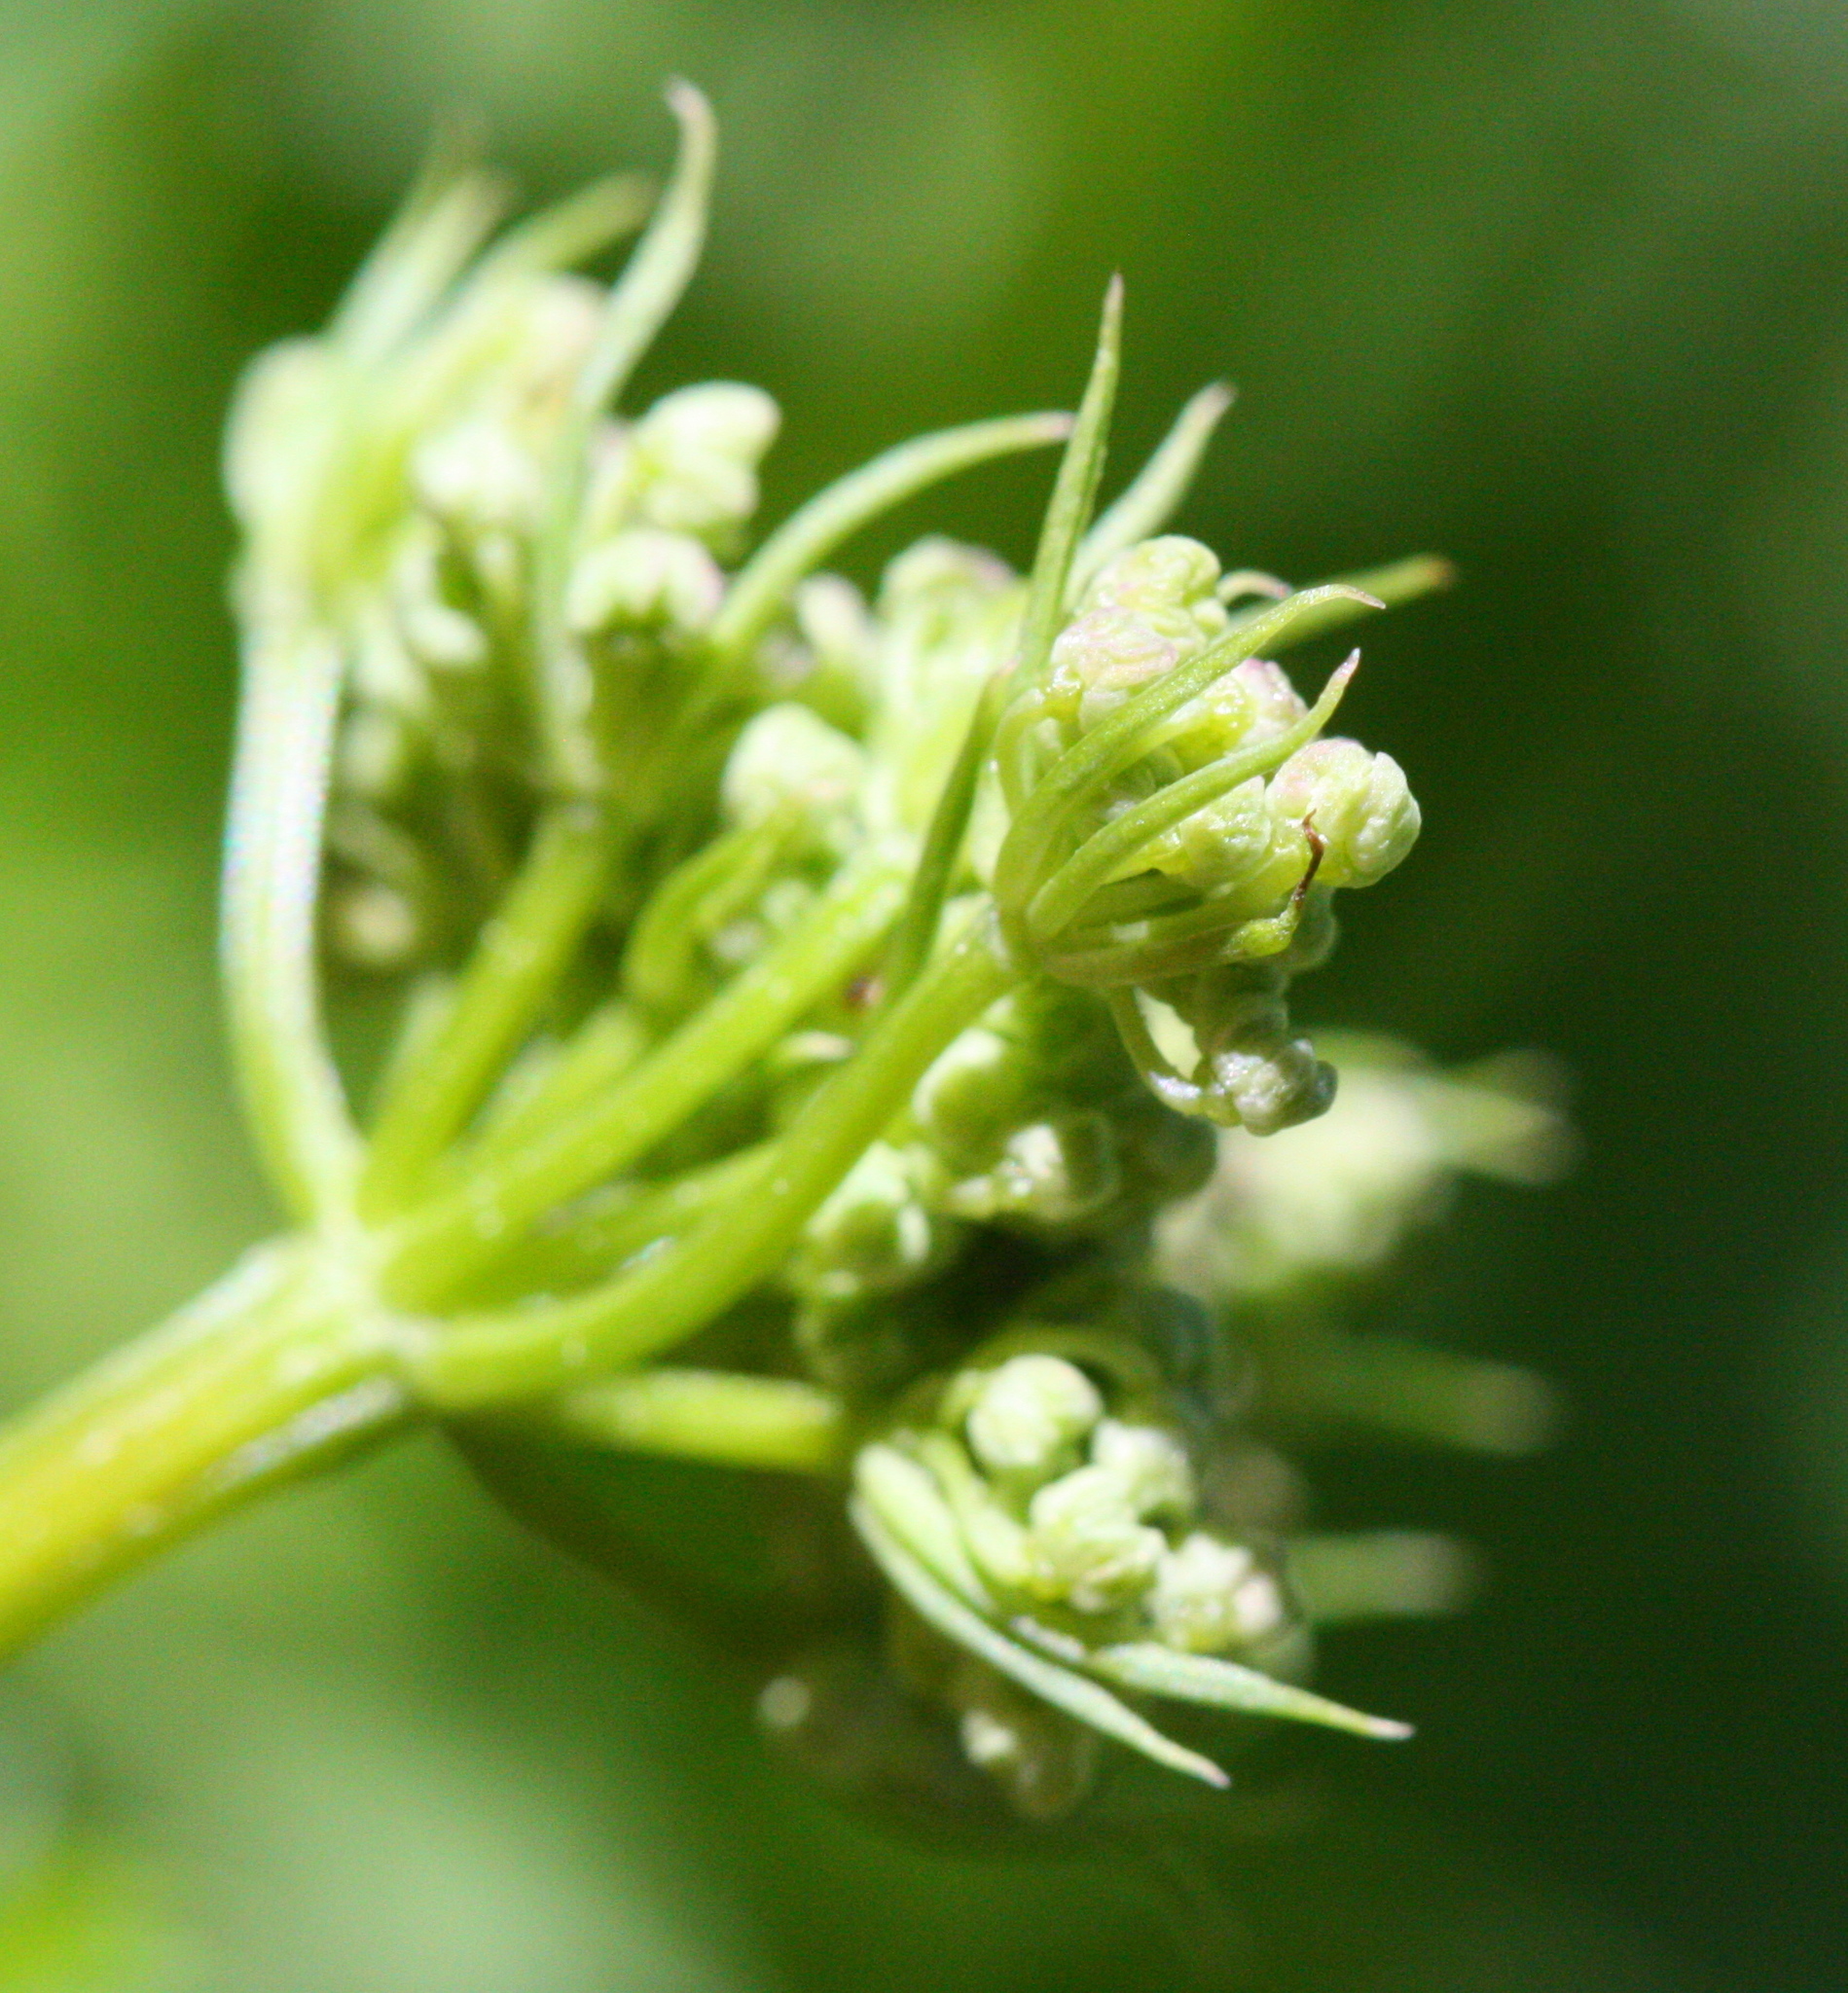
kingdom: Plantae
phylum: Tracheophyta
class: Magnoliopsida
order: Apiales
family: Apiaceae
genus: Ligusticum
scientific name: Ligusticum grayi
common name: Gray's licorice-root
